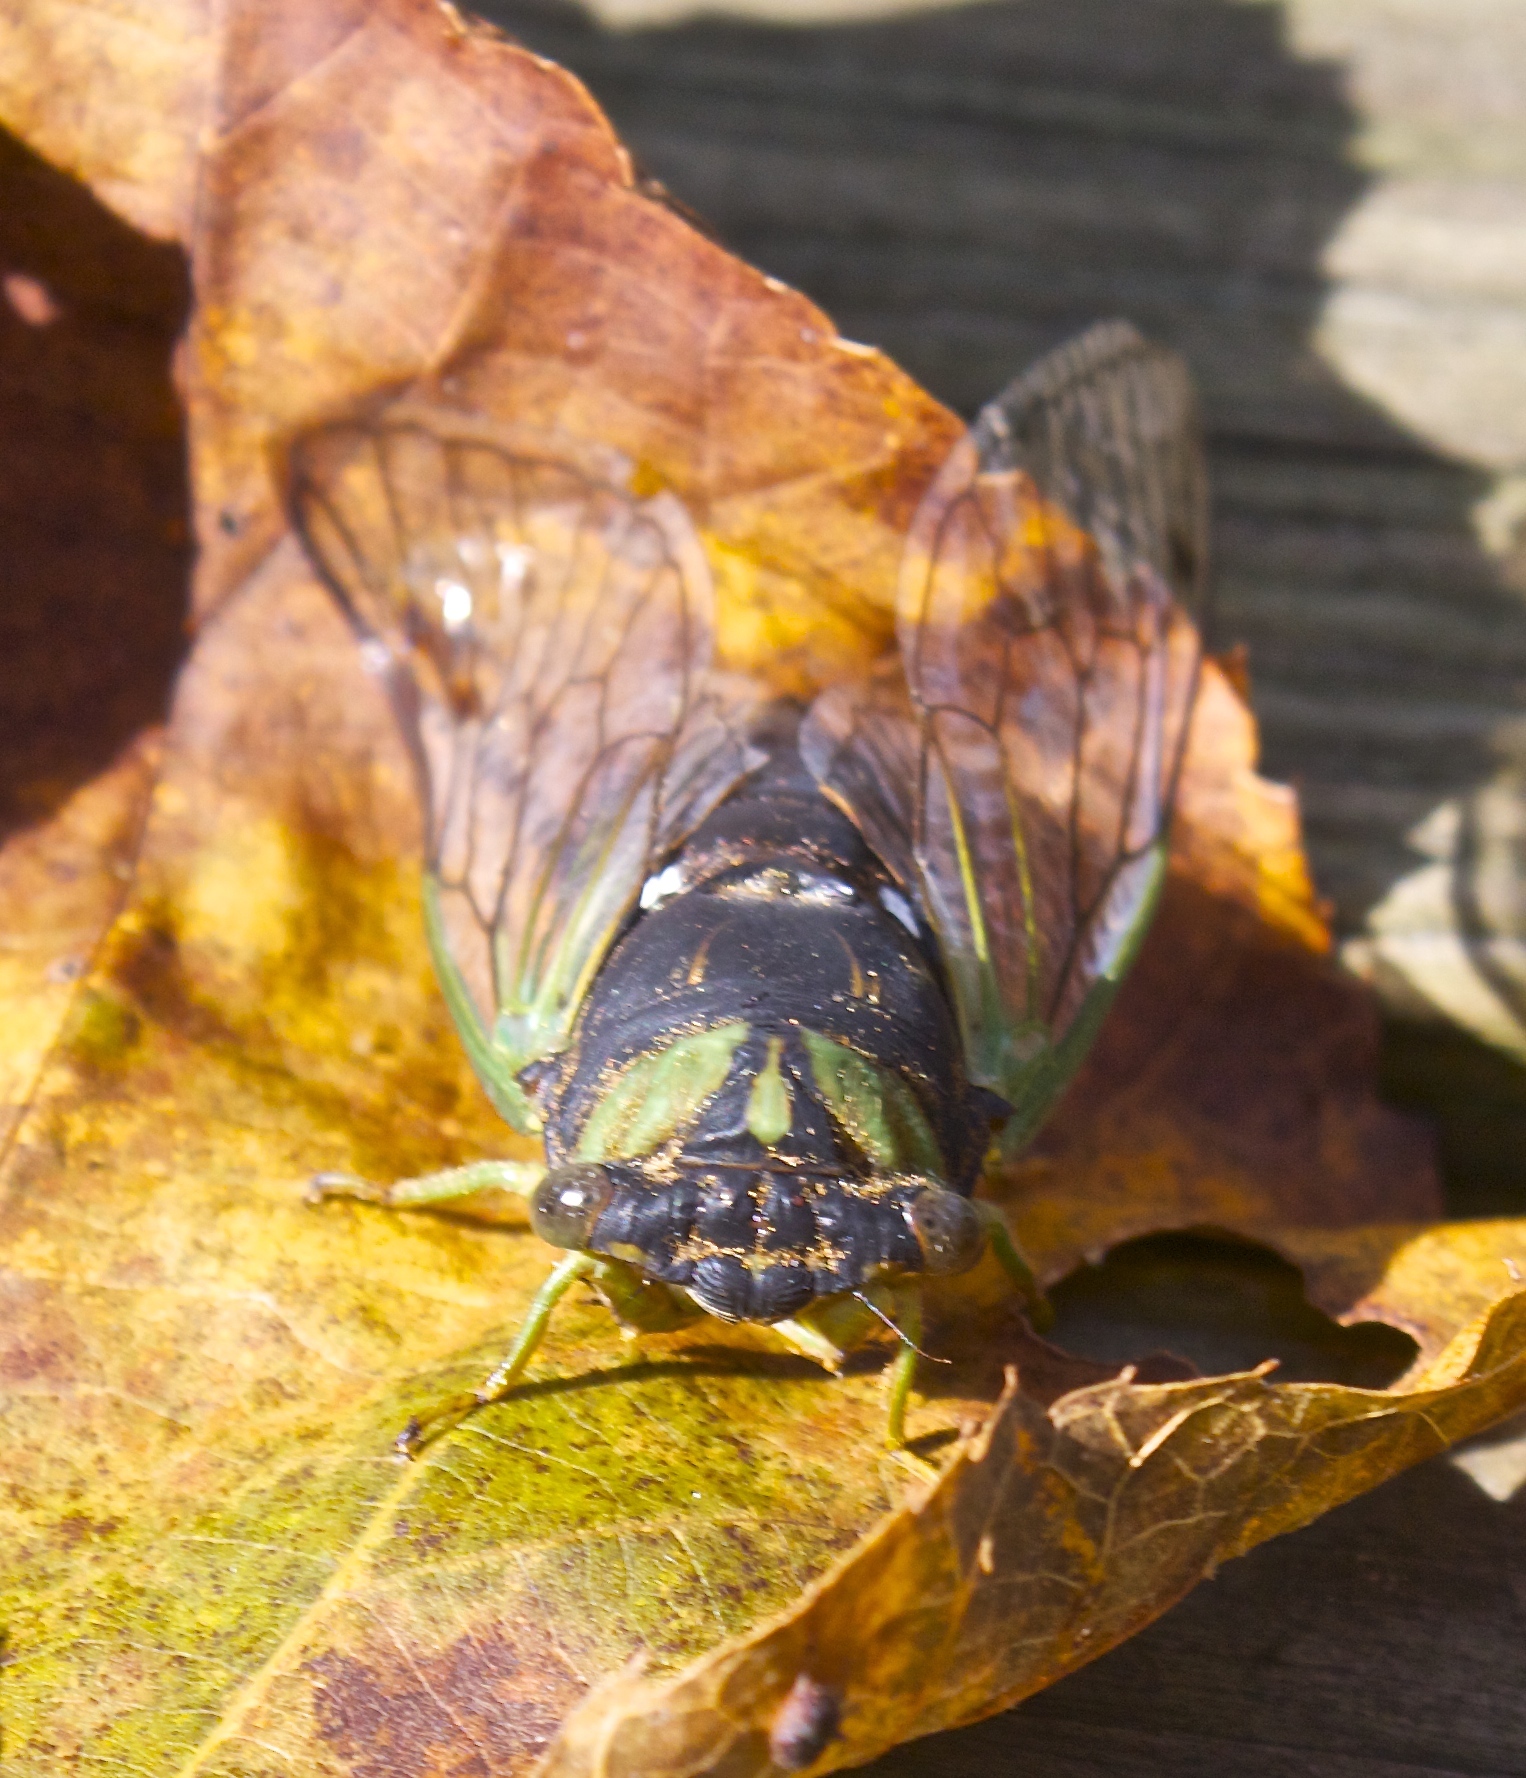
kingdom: Animalia
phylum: Arthropoda
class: Insecta
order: Hemiptera
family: Cicadidae
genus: Neotibicen
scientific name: Neotibicen tibicen
